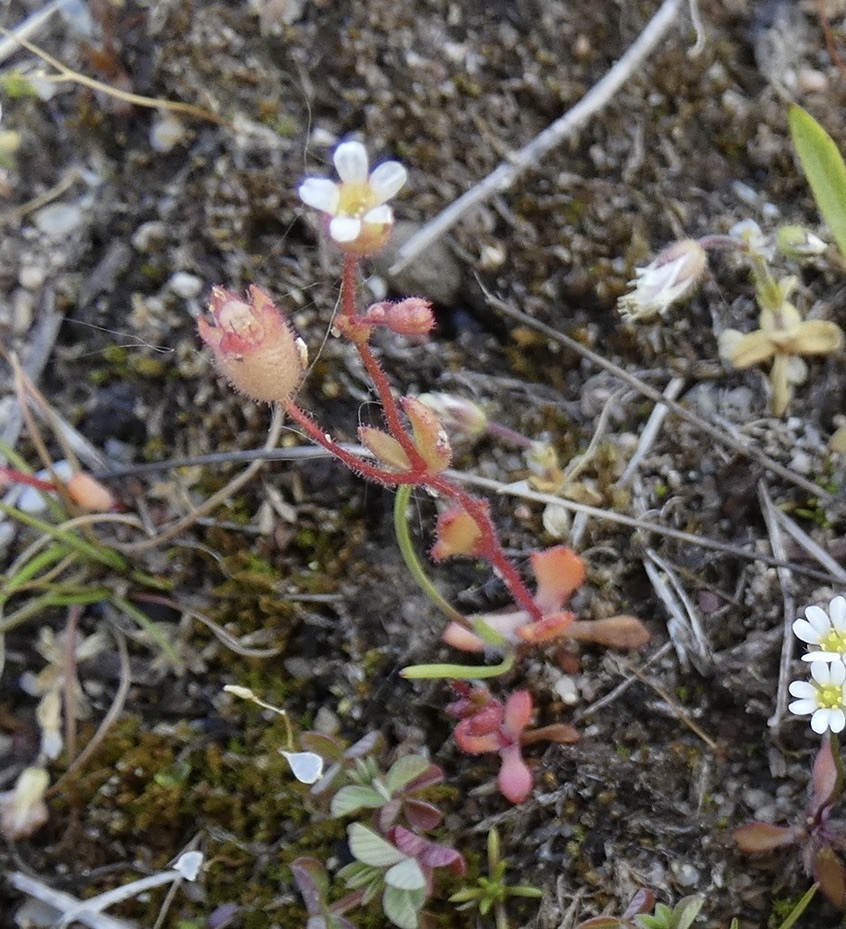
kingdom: Plantae
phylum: Tracheophyta
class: Magnoliopsida
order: Saxifragales
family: Saxifragaceae
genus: Saxifraga
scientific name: Saxifraga tridactylites
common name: Rue-leaved saxifrage
